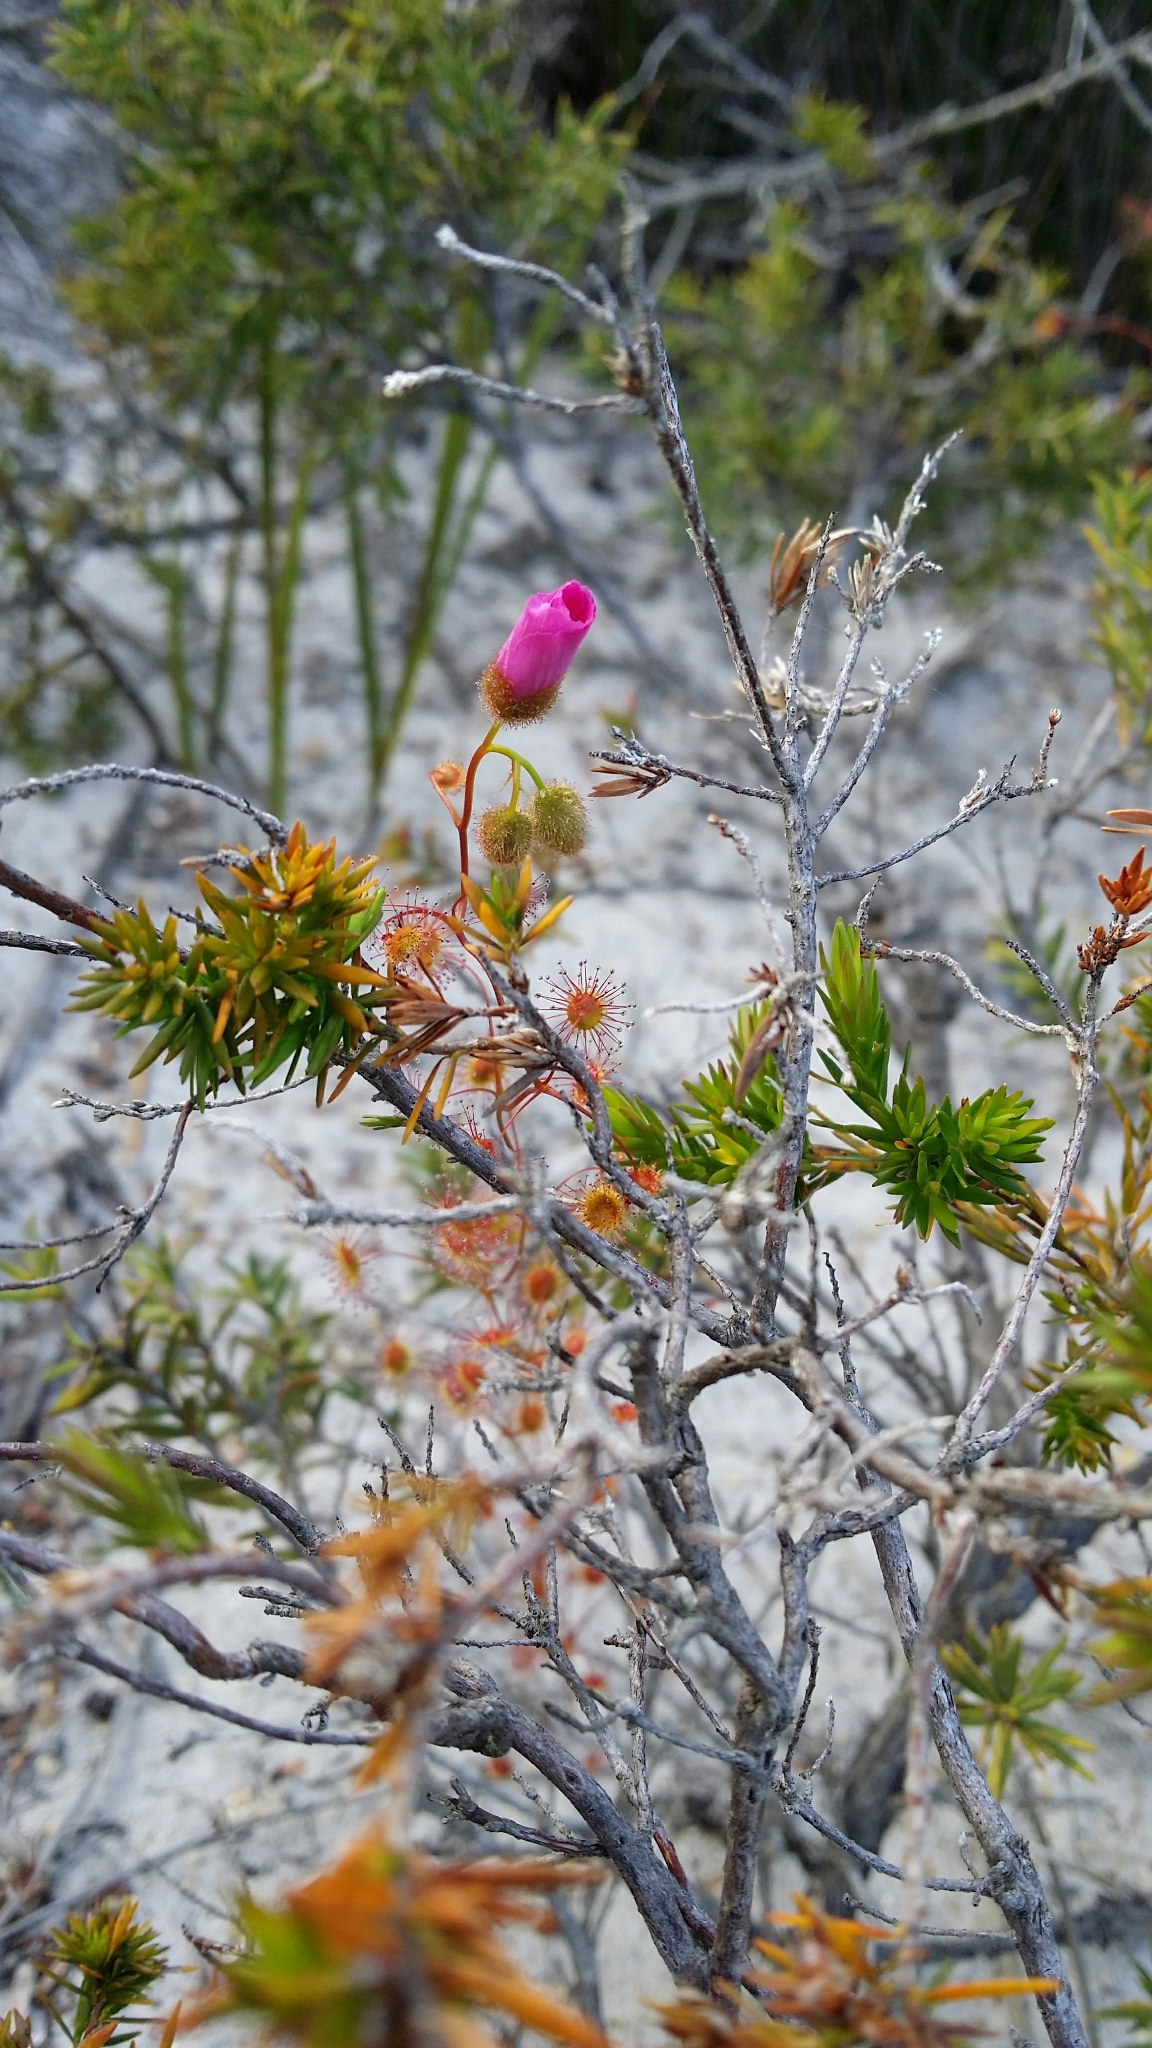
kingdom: Plantae
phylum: Tracheophyta
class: Magnoliopsida
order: Caryophyllales
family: Droseraceae
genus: Drosera
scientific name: Drosera
